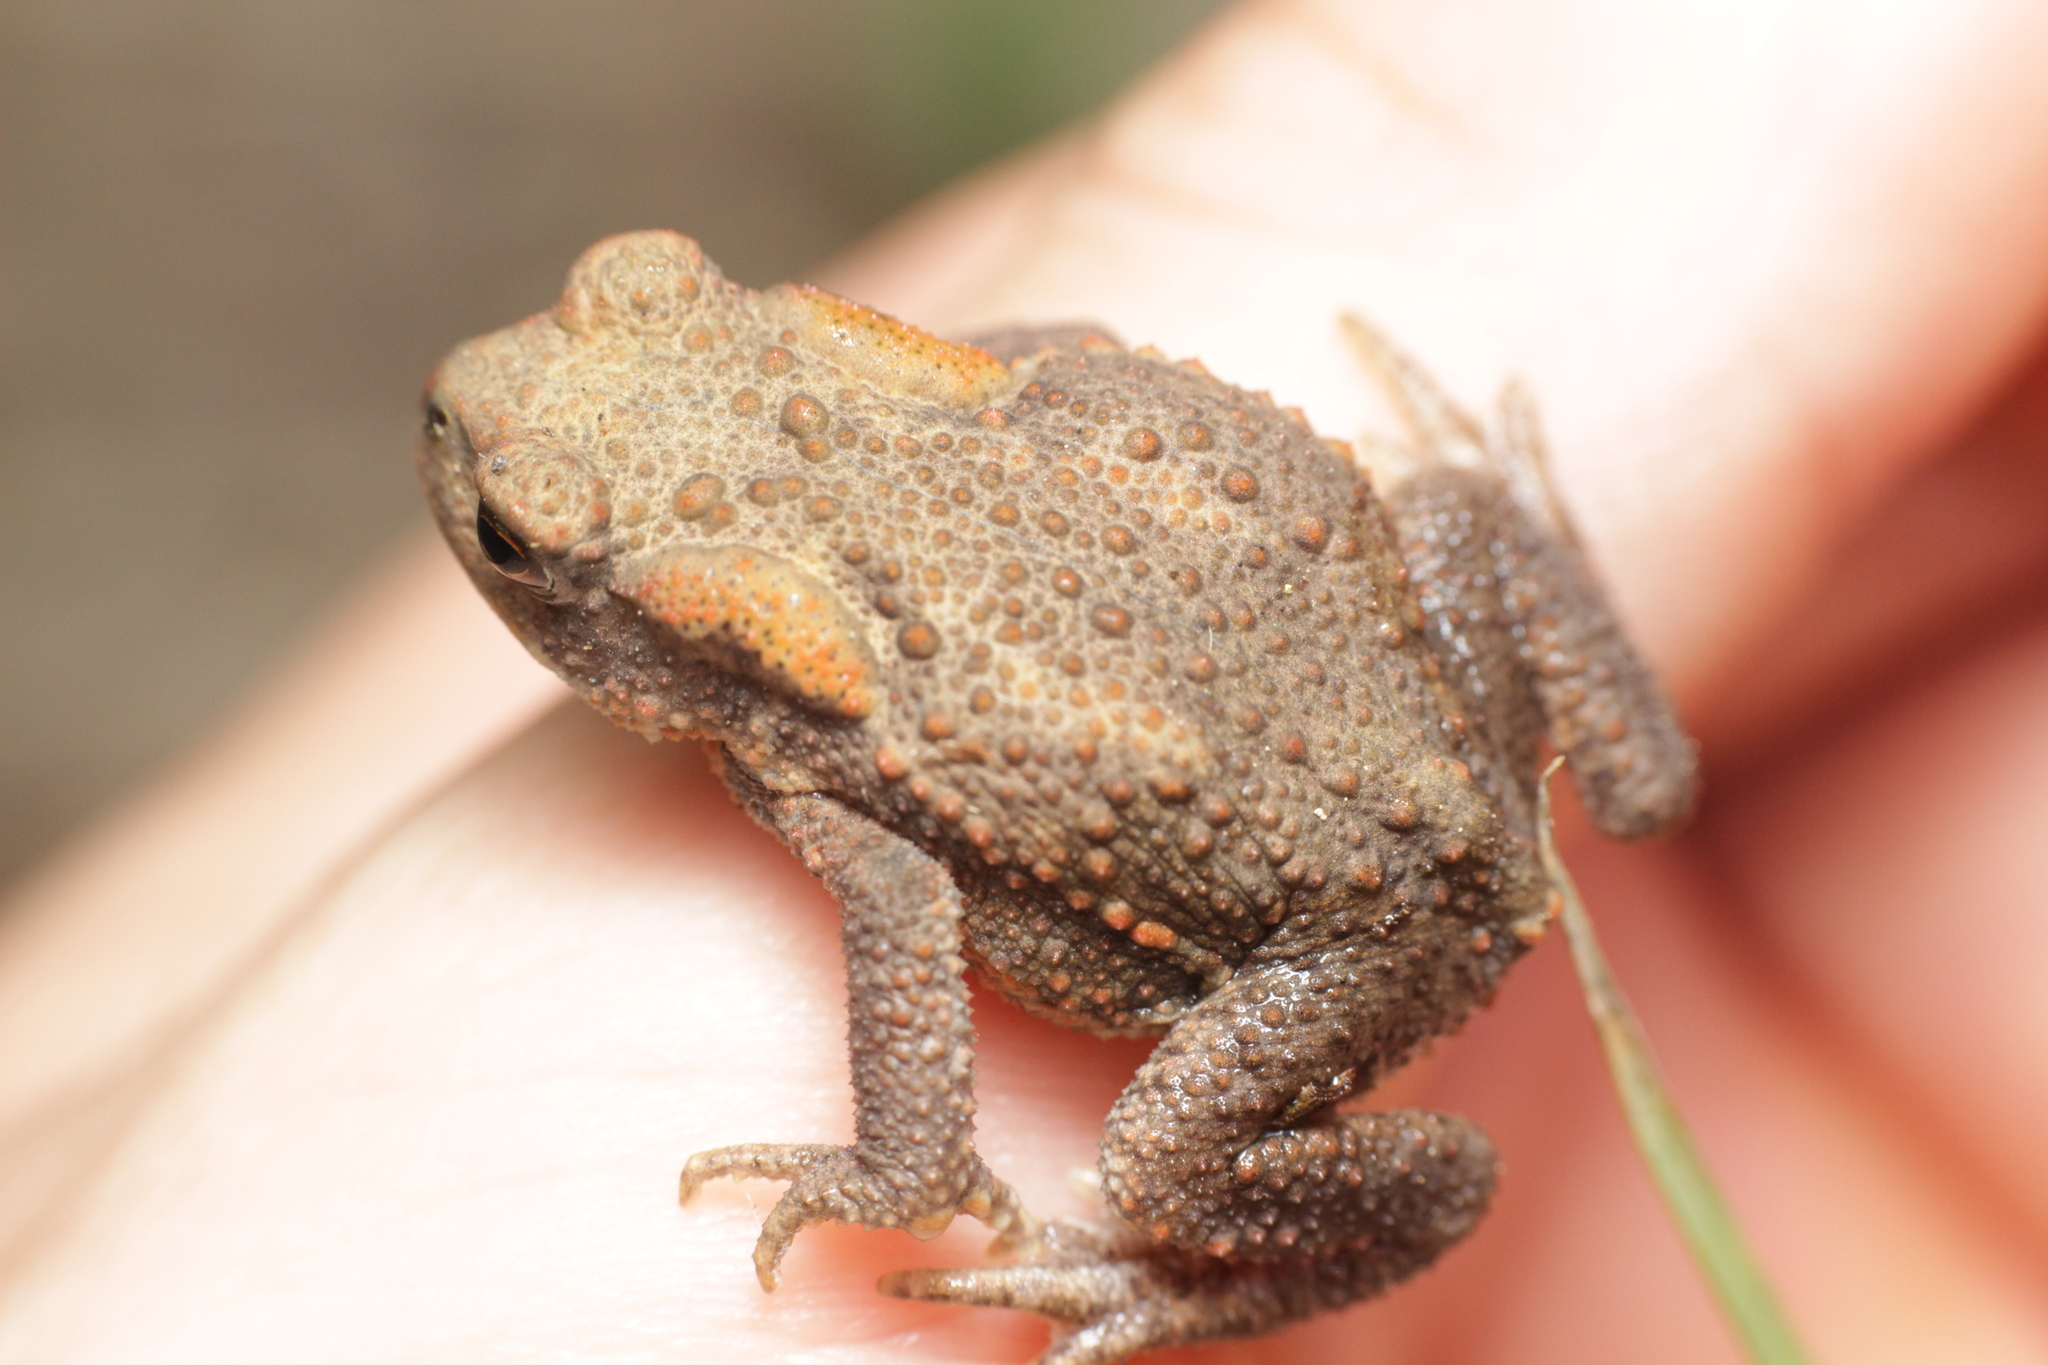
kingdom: Animalia
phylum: Chordata
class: Amphibia
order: Anura
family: Bufonidae
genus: Bufo
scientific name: Bufo bufo
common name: Common toad
